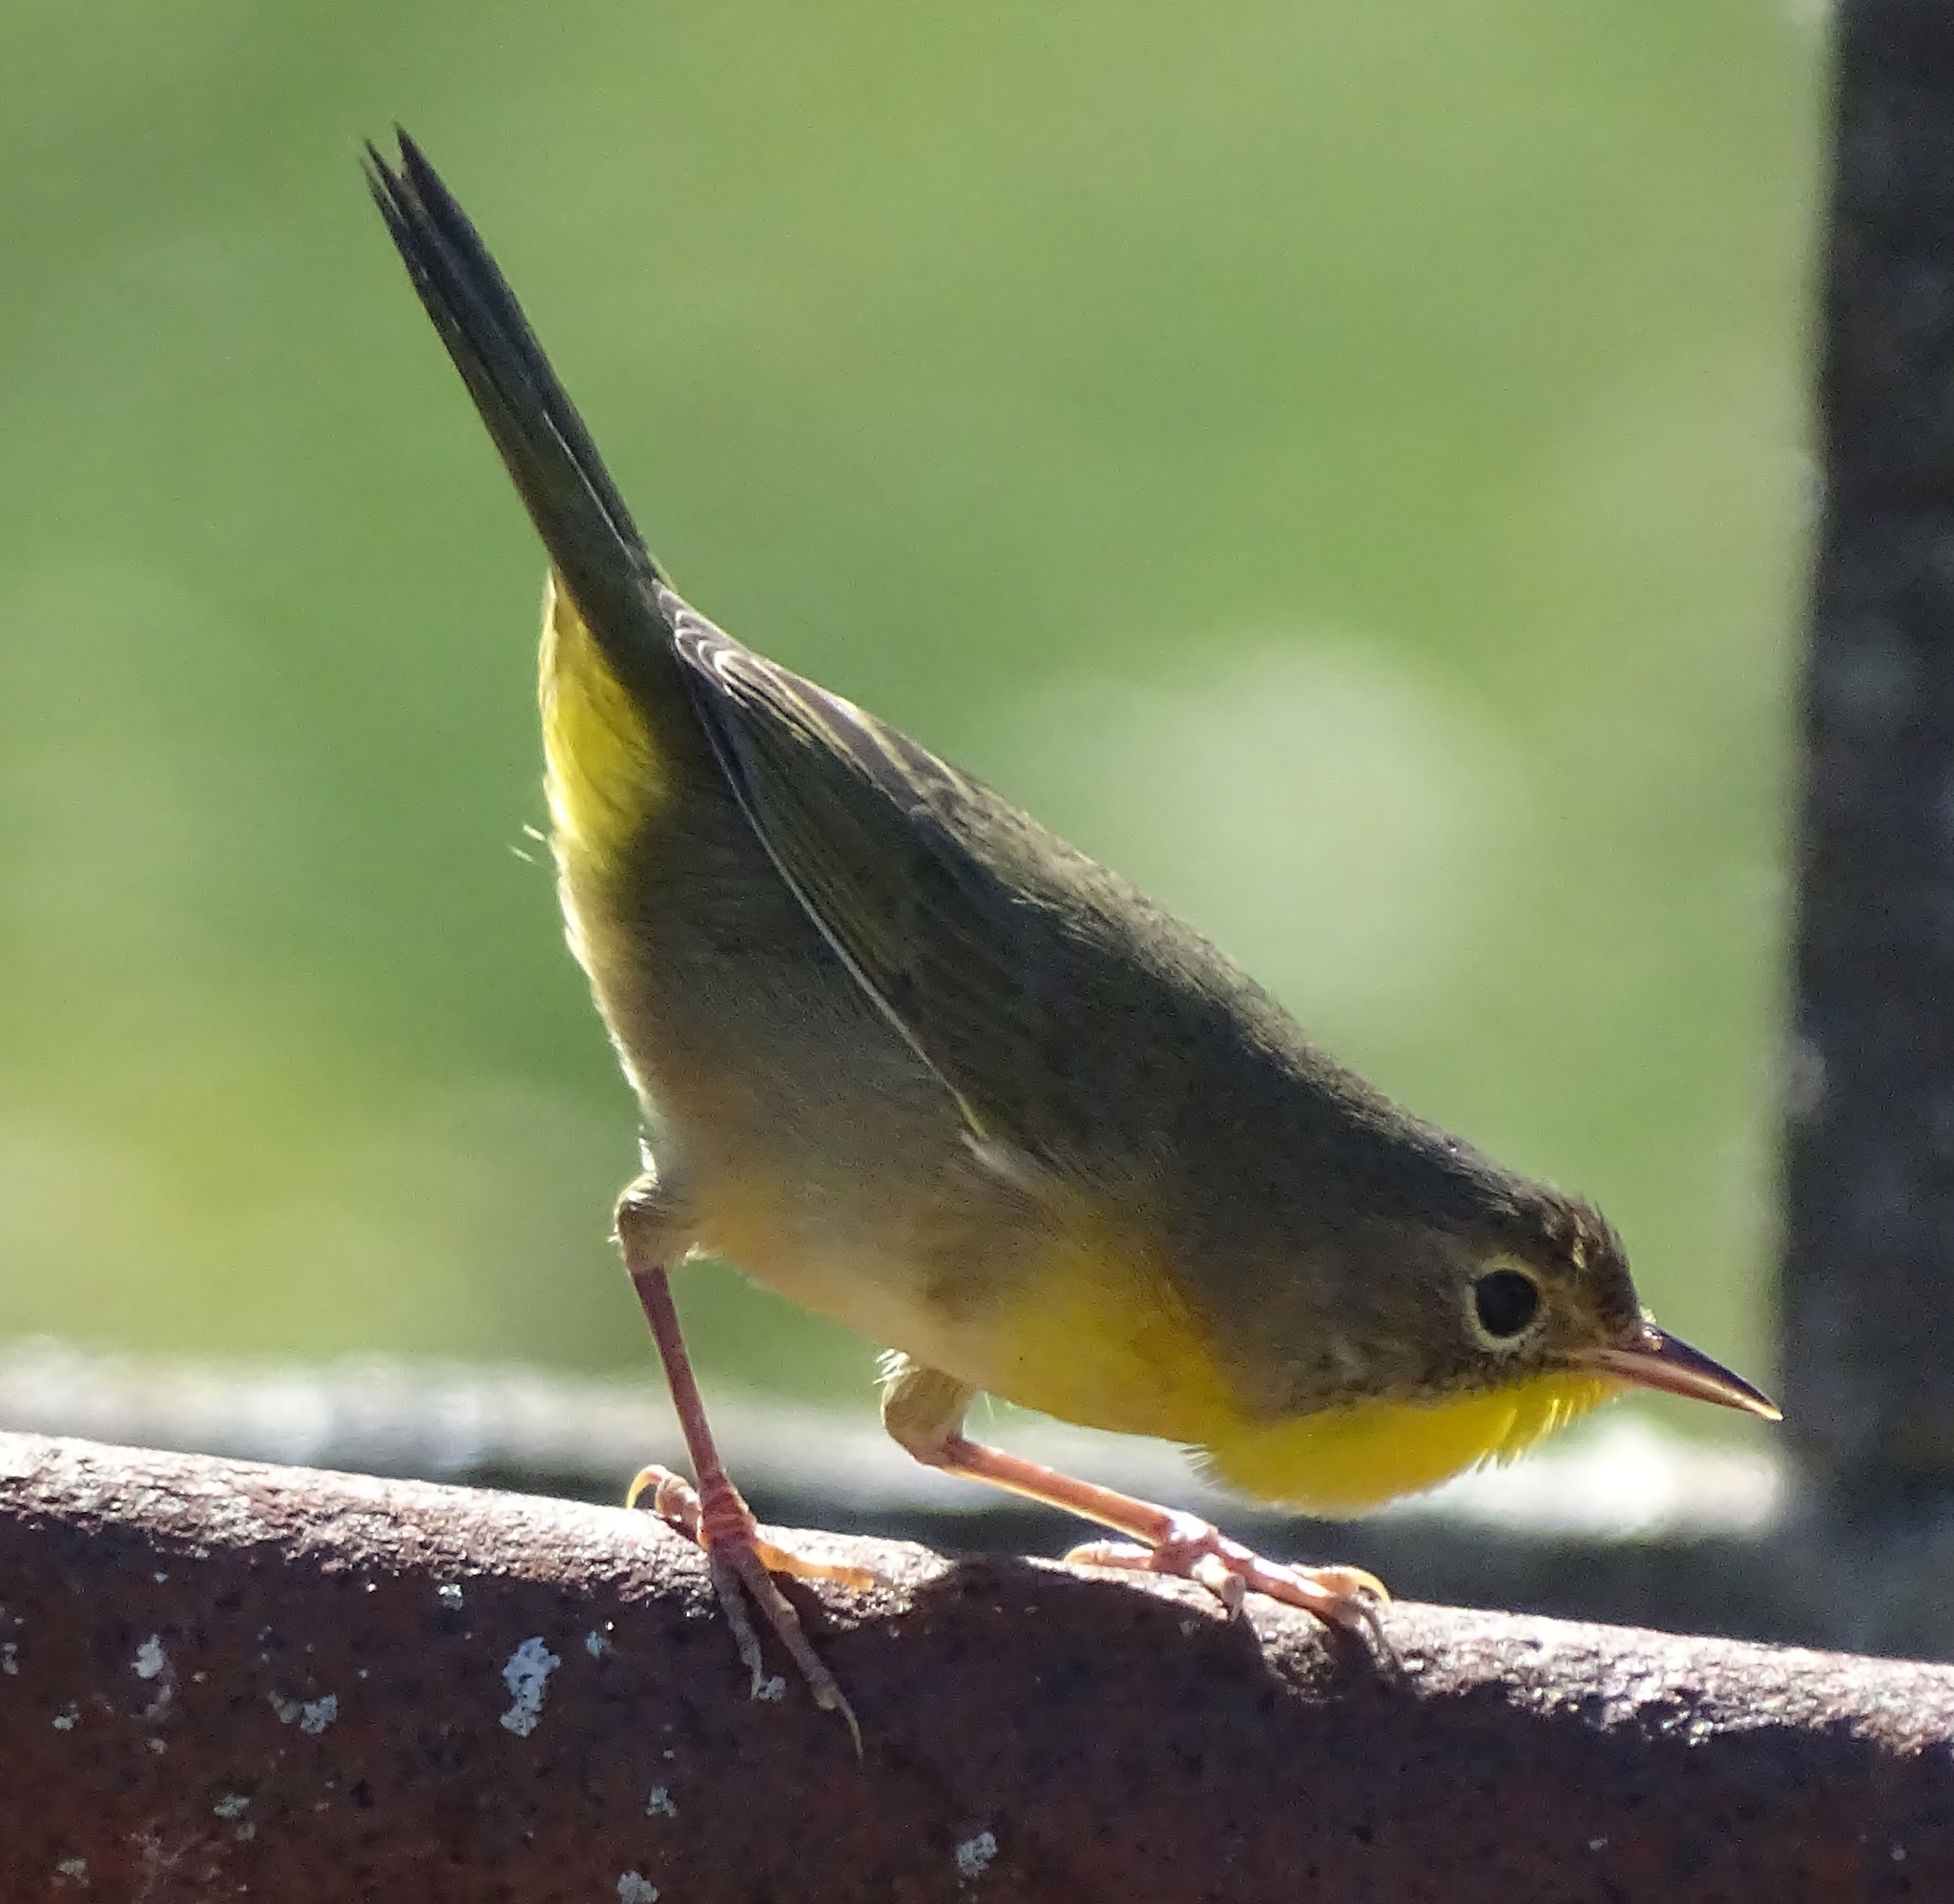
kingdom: Animalia
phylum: Chordata
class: Aves
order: Passeriformes
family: Parulidae
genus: Geothlypis
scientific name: Geothlypis trichas
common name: Common yellowthroat
